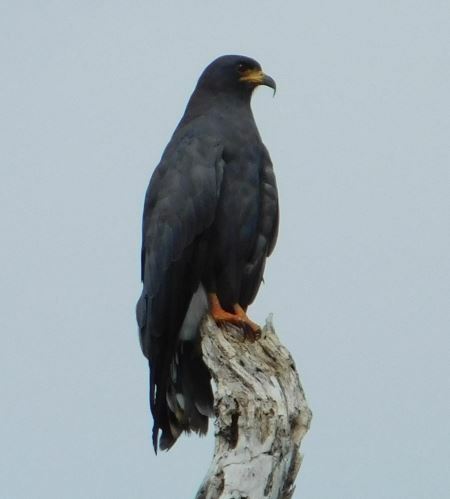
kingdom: Animalia
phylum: Chordata
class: Aves
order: Accipitriformes
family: Accipitridae
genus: Rostrhamus
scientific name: Rostrhamus sociabilis
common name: Snail kite
